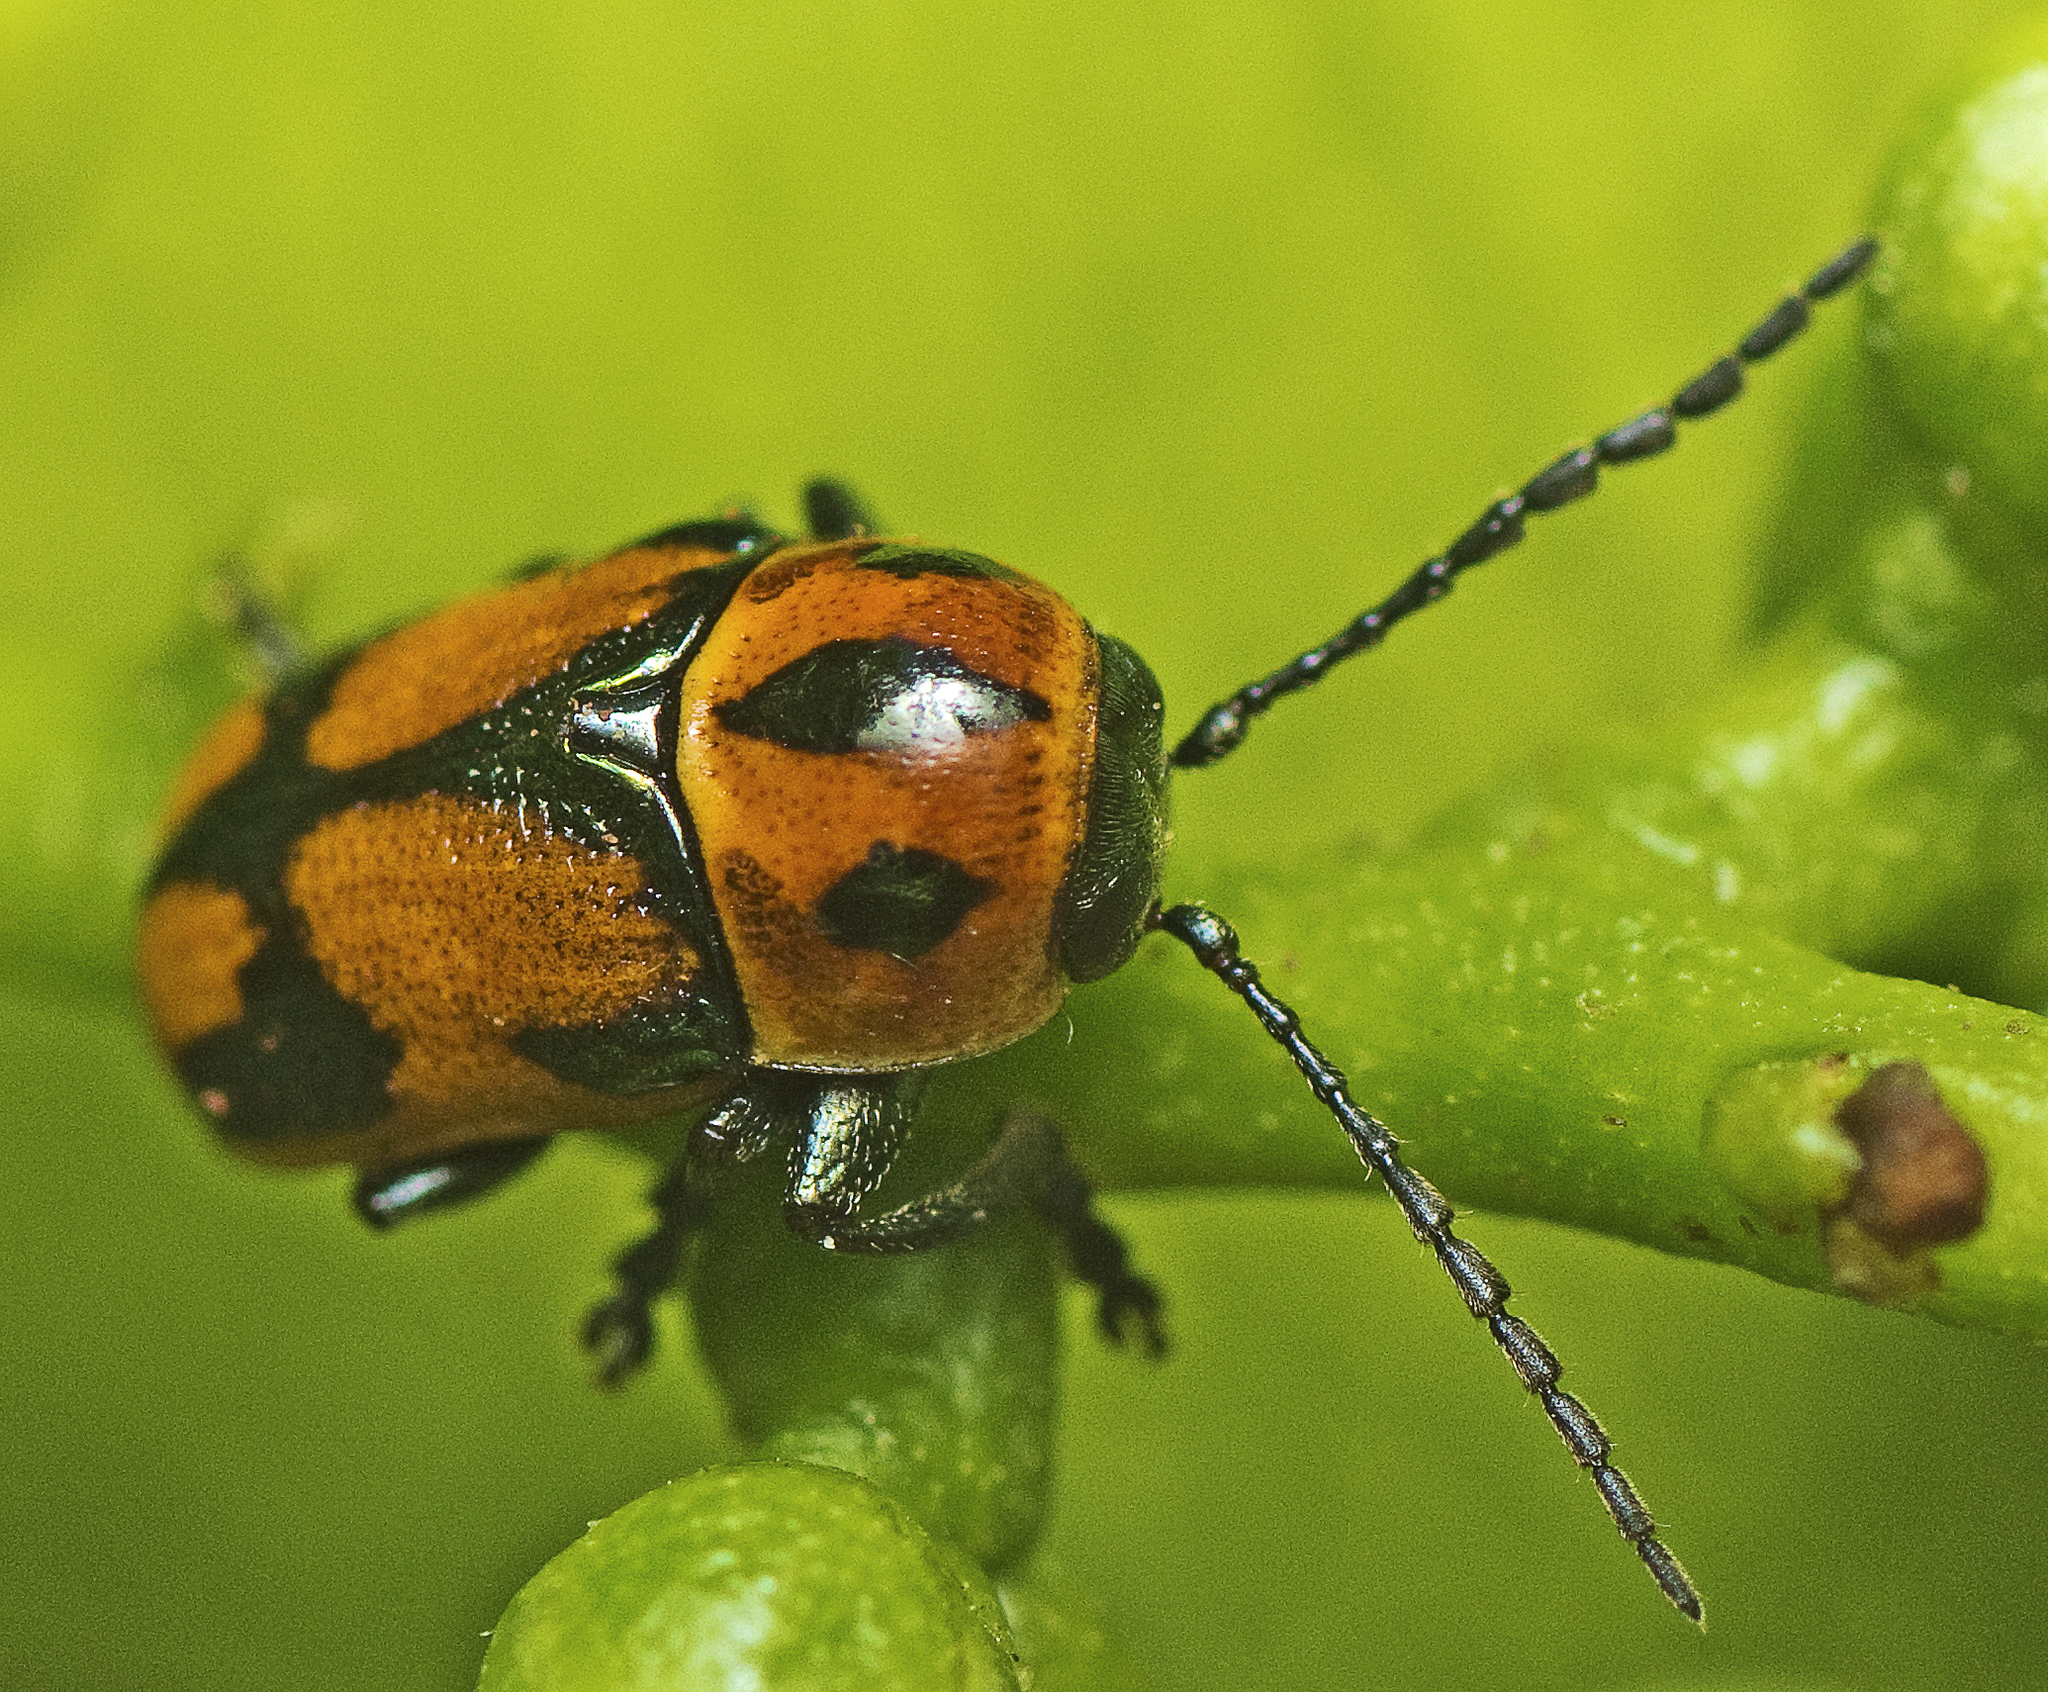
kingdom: Animalia
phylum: Arthropoda
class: Insecta
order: Coleoptera
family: Chrysomelidae
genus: Aporocera
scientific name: Aporocera
